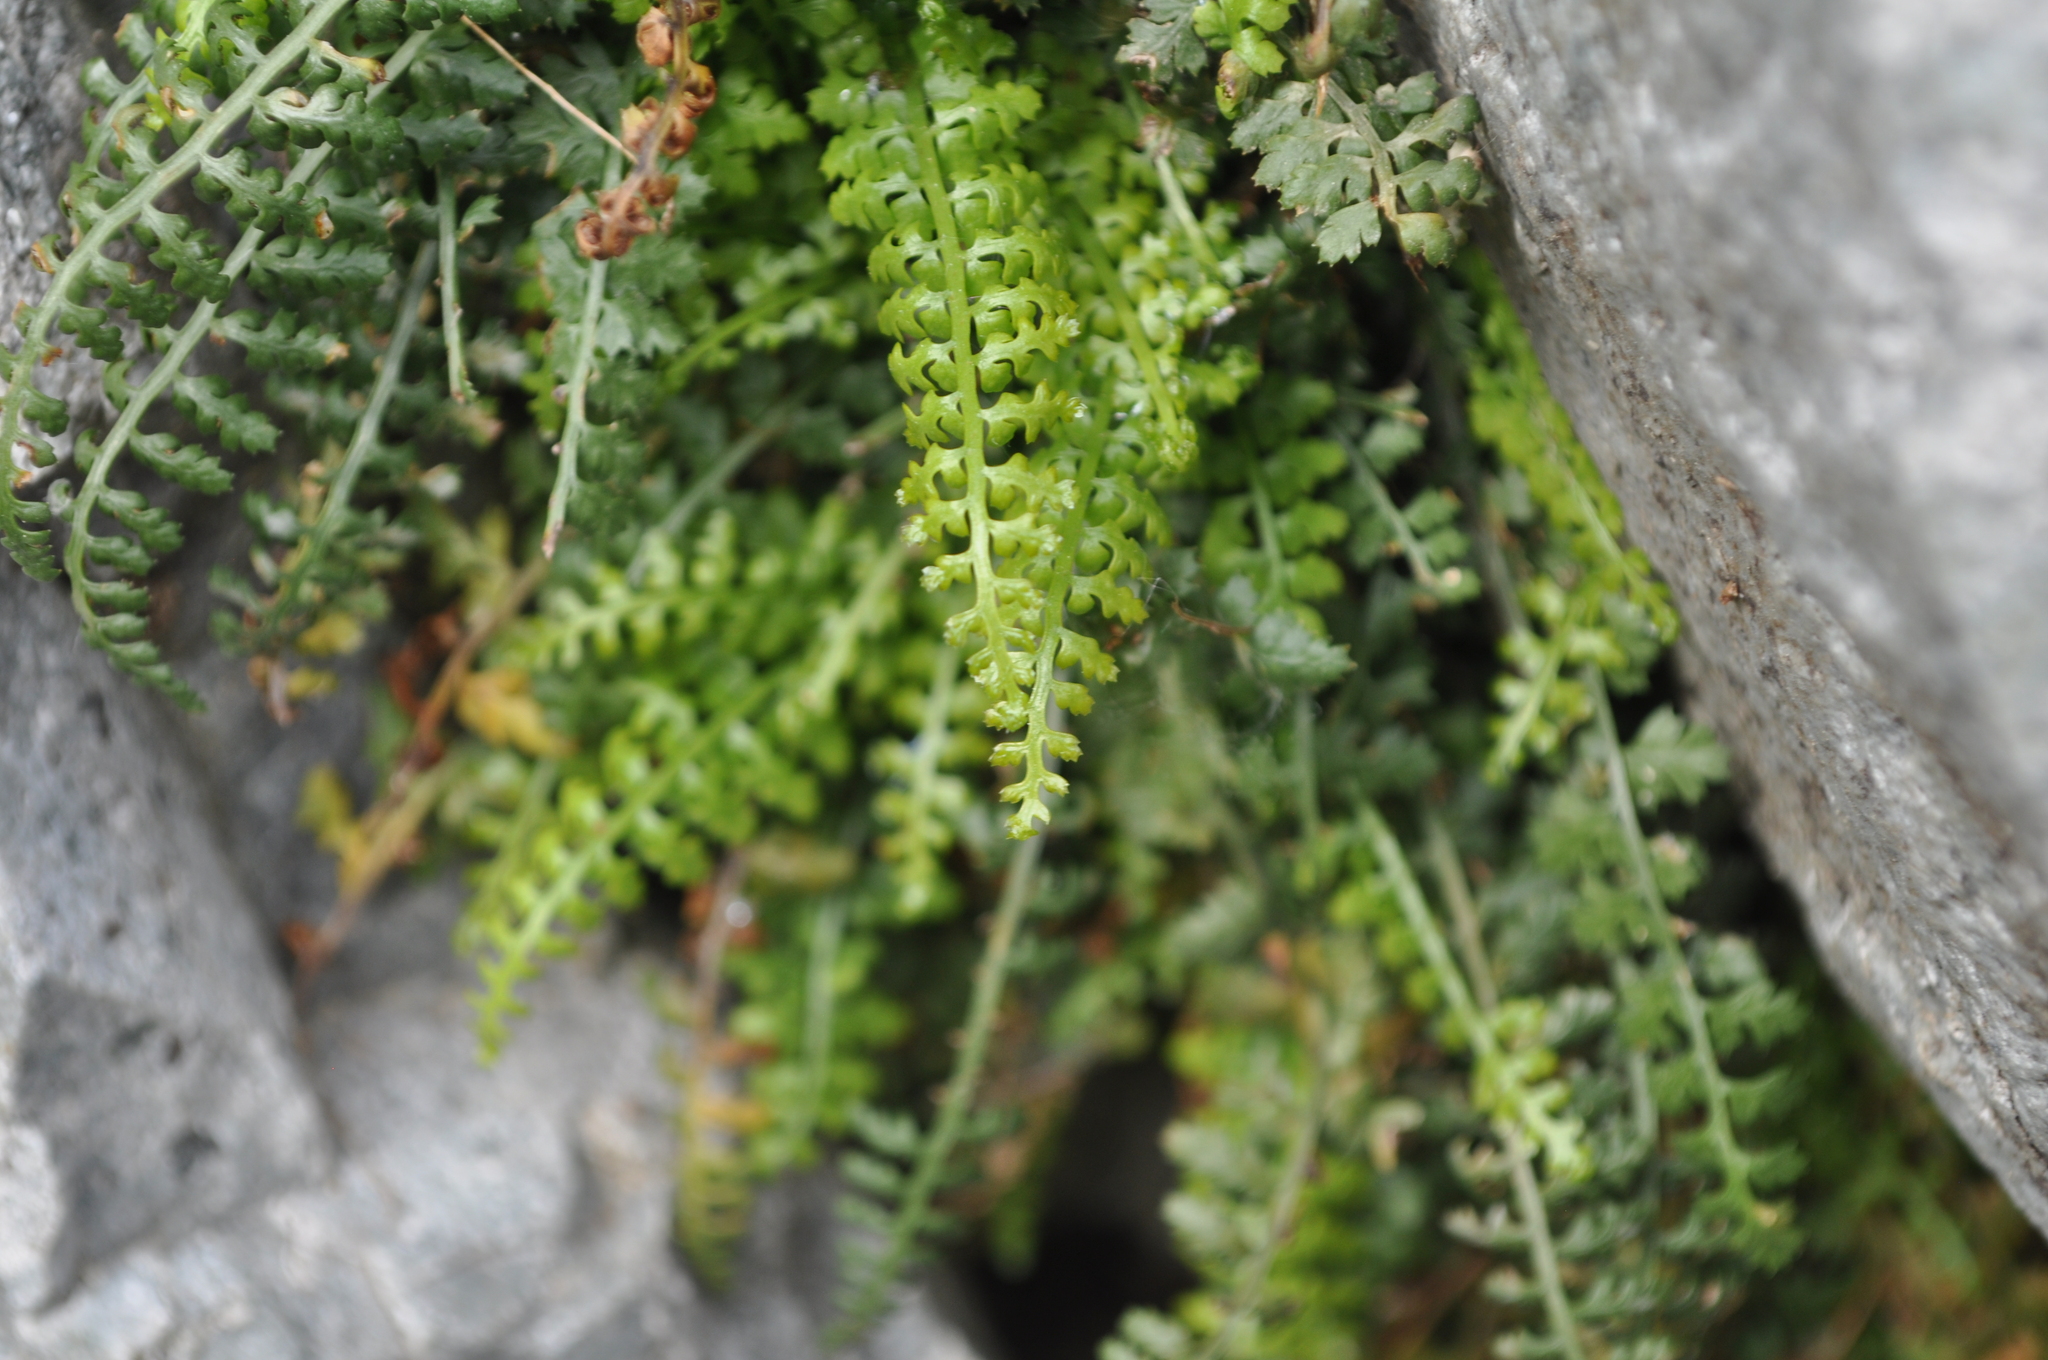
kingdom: Plantae
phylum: Tracheophyta
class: Polypodiopsida
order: Polypodiales
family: Aspleniaceae
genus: Asplenium
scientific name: Asplenium fontanum
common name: Fountain spleenwort
